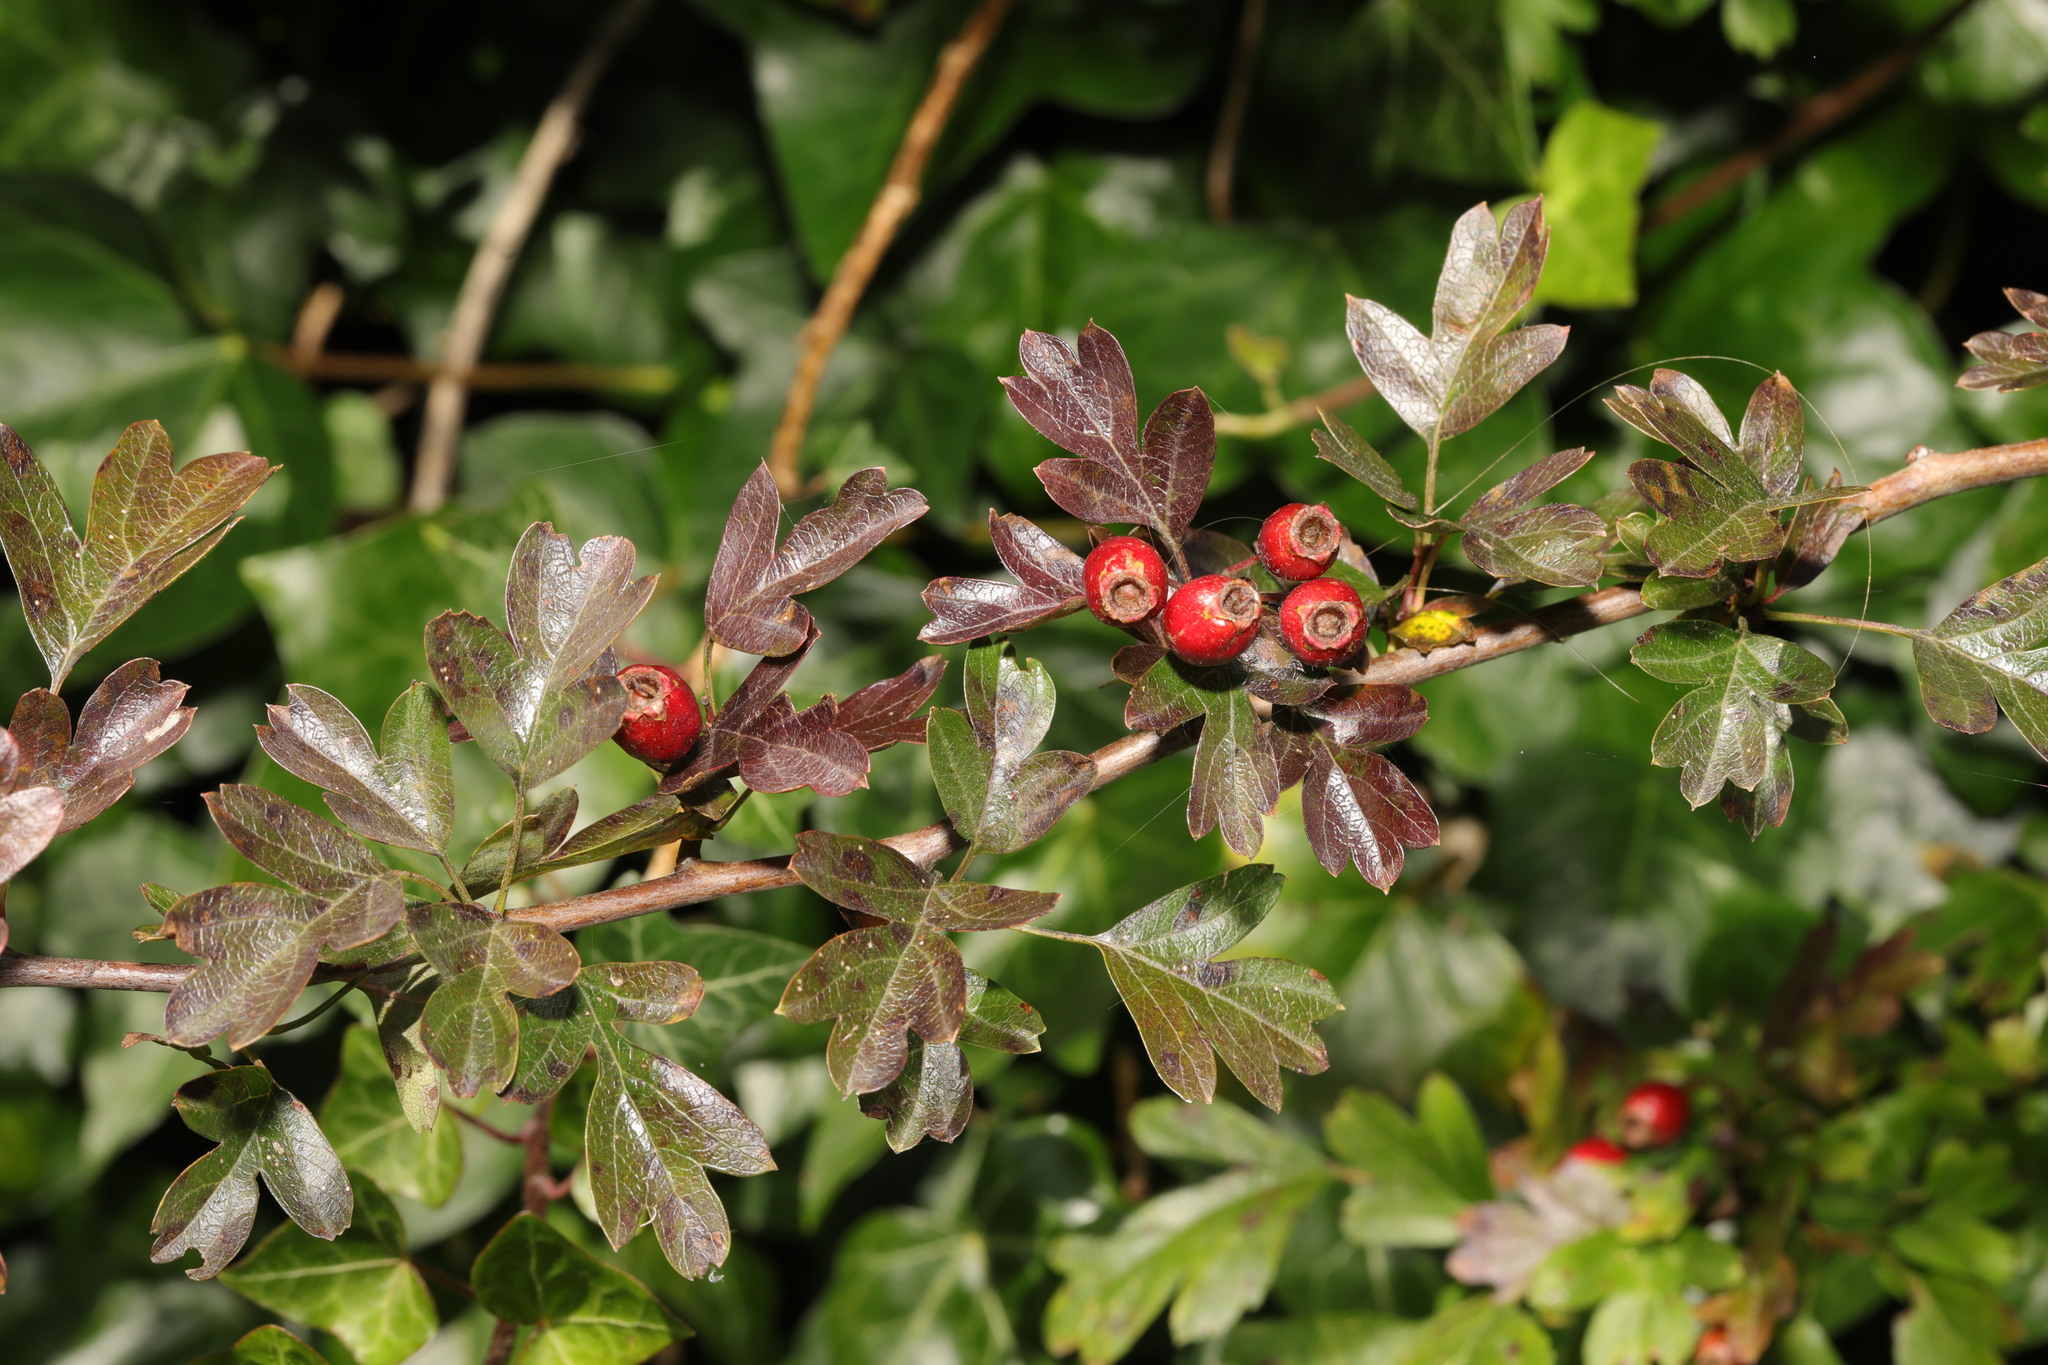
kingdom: Plantae
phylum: Tracheophyta
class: Magnoliopsida
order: Rosales
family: Rosaceae
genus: Crataegus
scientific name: Crataegus monogyna
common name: Hawthorn
